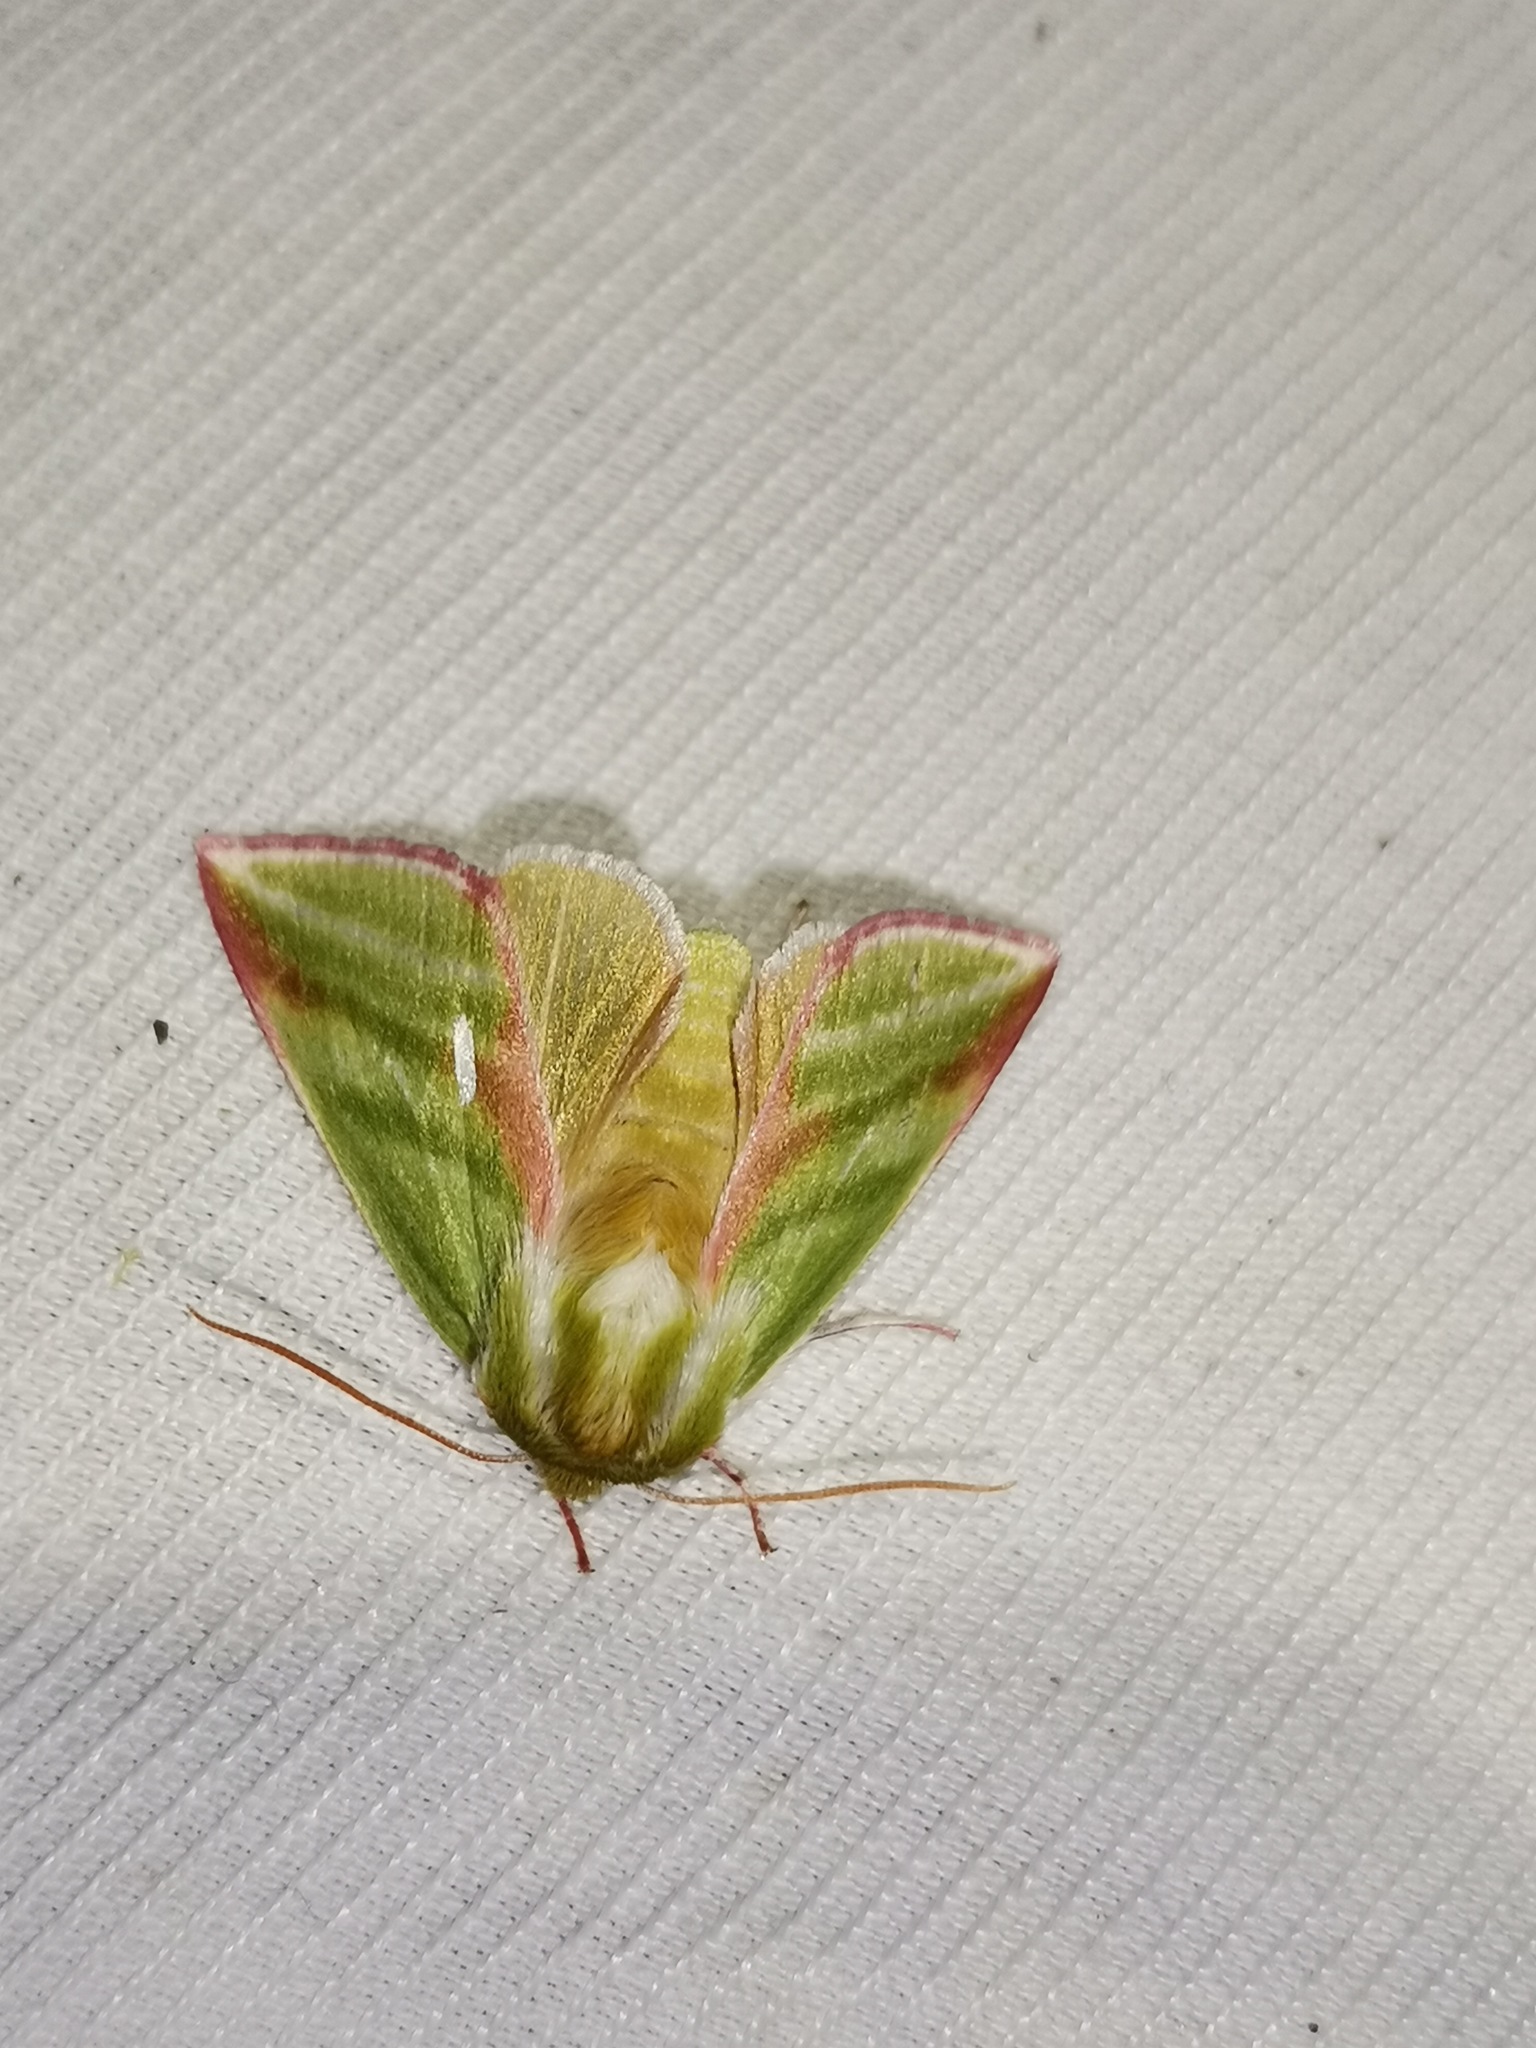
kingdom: Animalia
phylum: Arthropoda
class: Insecta
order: Lepidoptera
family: Nolidae
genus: Pseudoips
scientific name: Pseudoips prasinana
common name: Green silver-lines
